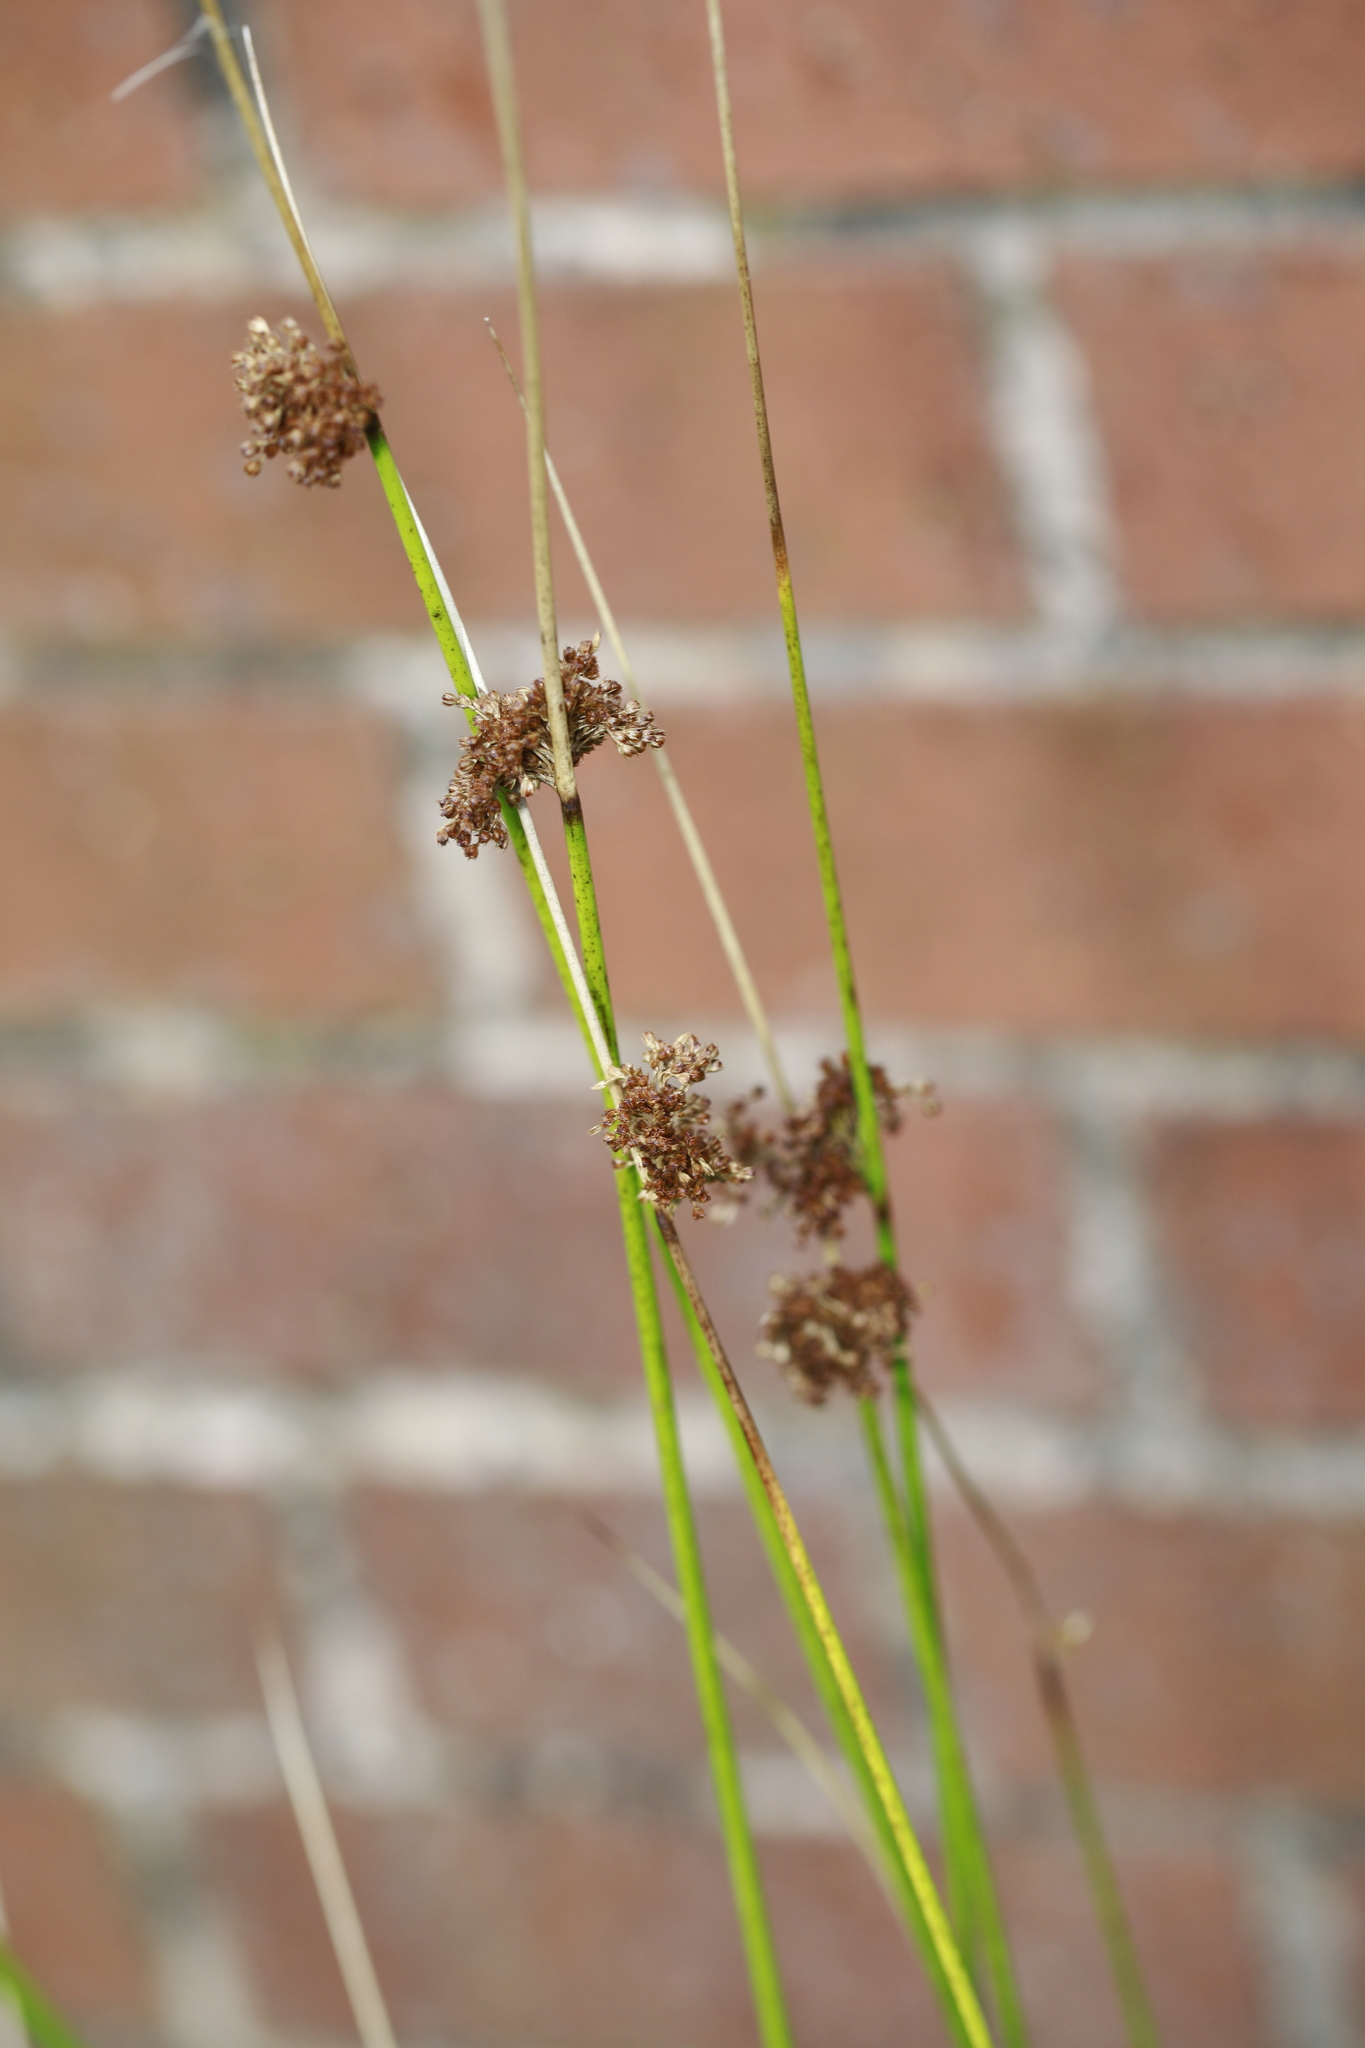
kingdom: Plantae
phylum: Tracheophyta
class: Liliopsida
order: Poales
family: Juncaceae
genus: Juncus
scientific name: Juncus effusus
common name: Soft rush
